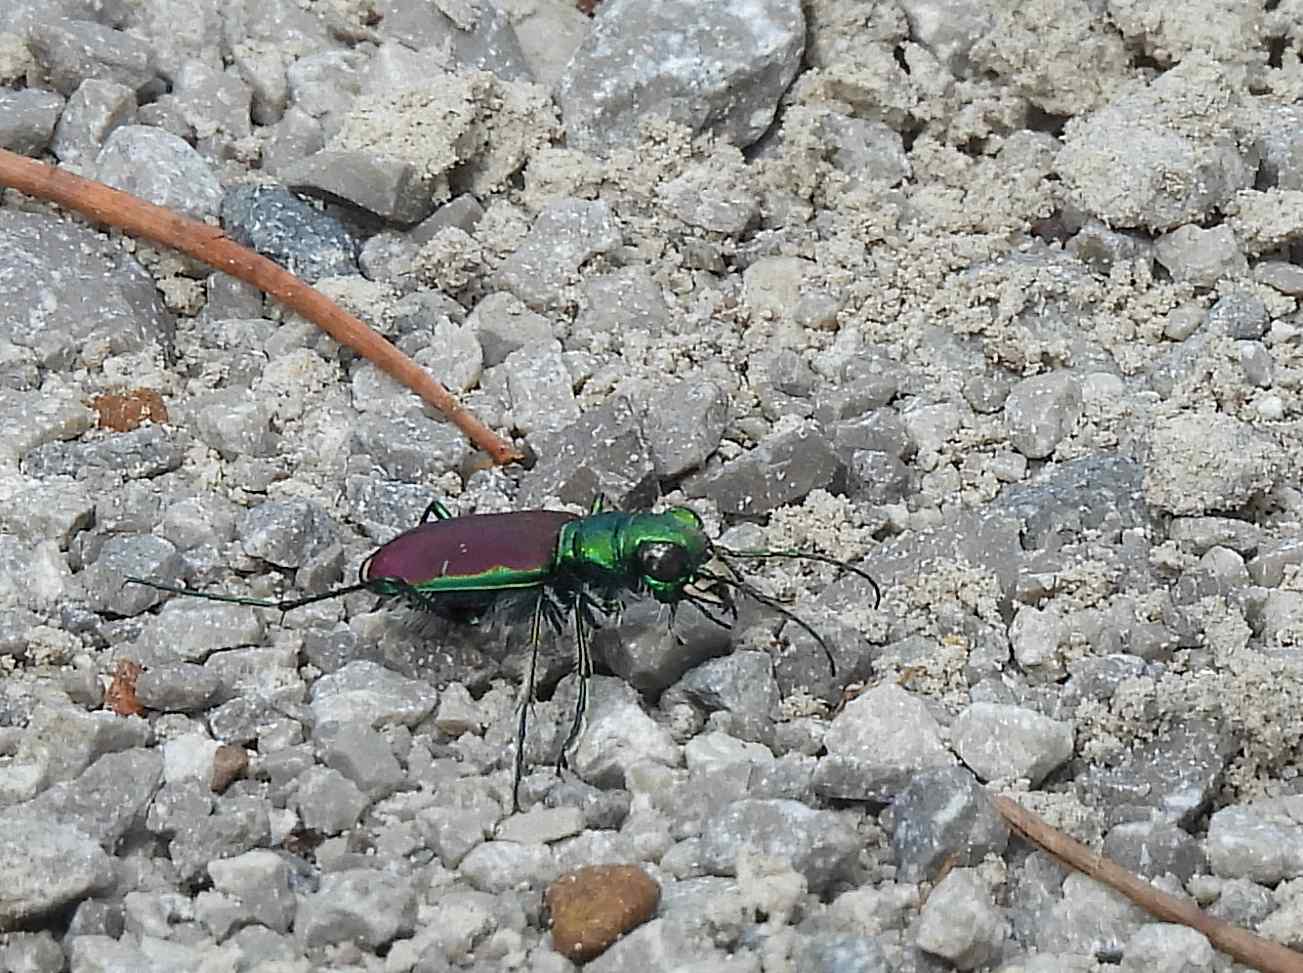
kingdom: Animalia
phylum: Arthropoda
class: Insecta
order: Coleoptera
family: Carabidae
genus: Cicindela
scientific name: Cicindela splendida
